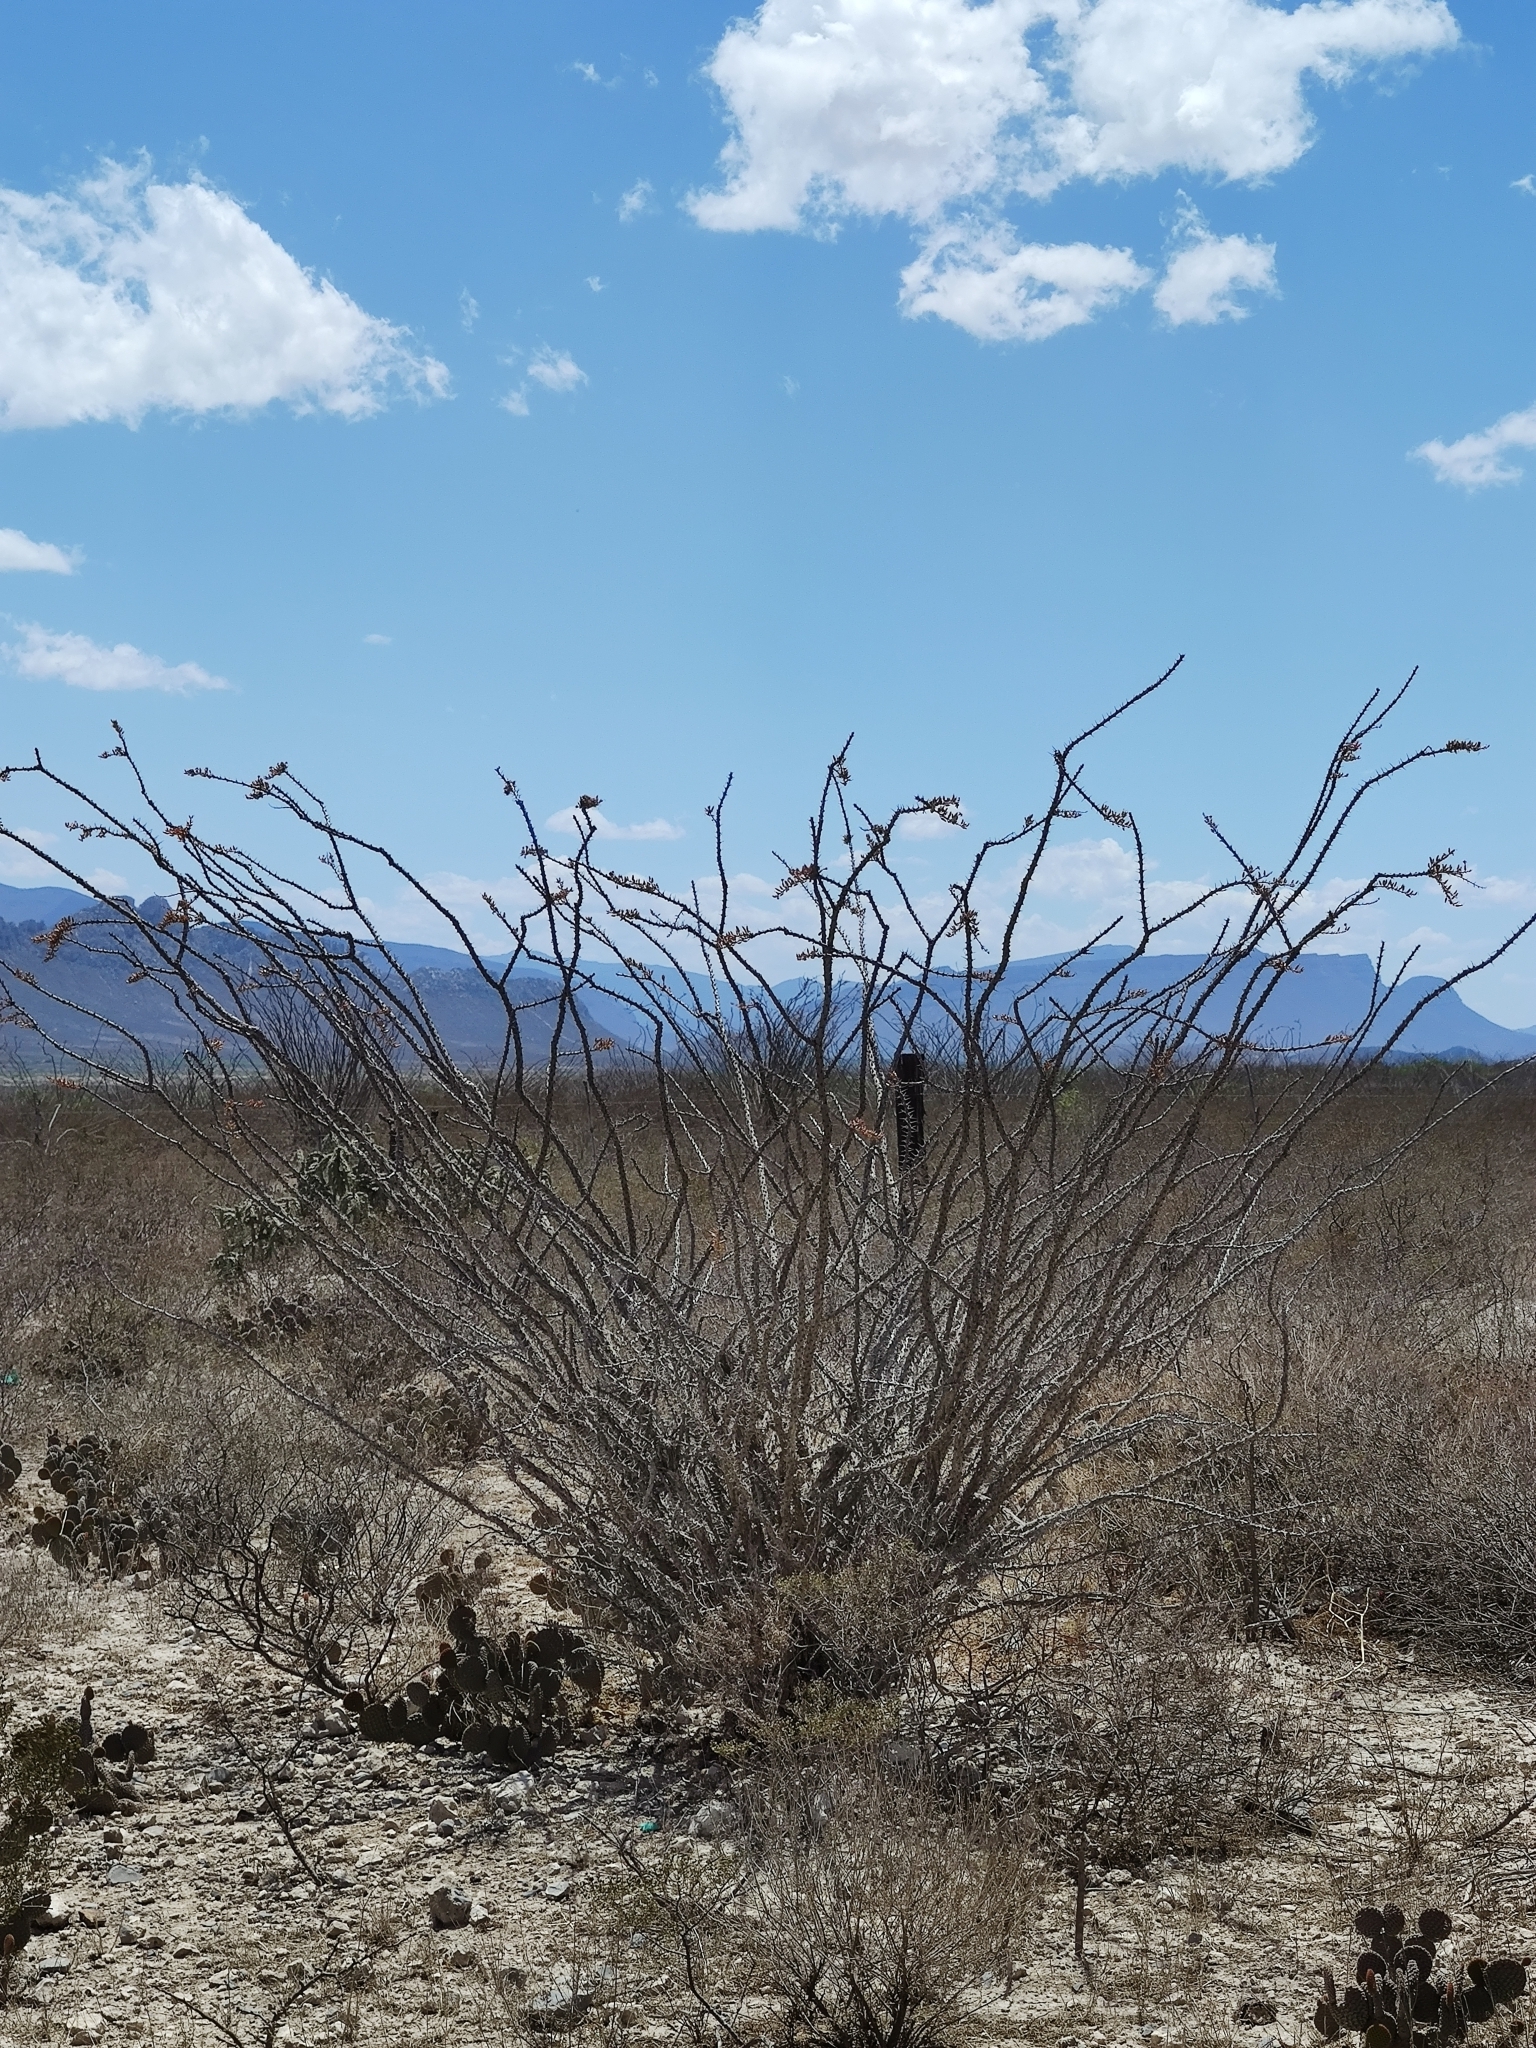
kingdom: Plantae
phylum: Tracheophyta
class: Magnoliopsida
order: Ericales
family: Fouquieriaceae
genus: Fouquieria
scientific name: Fouquieria splendens
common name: Vine-cactus
